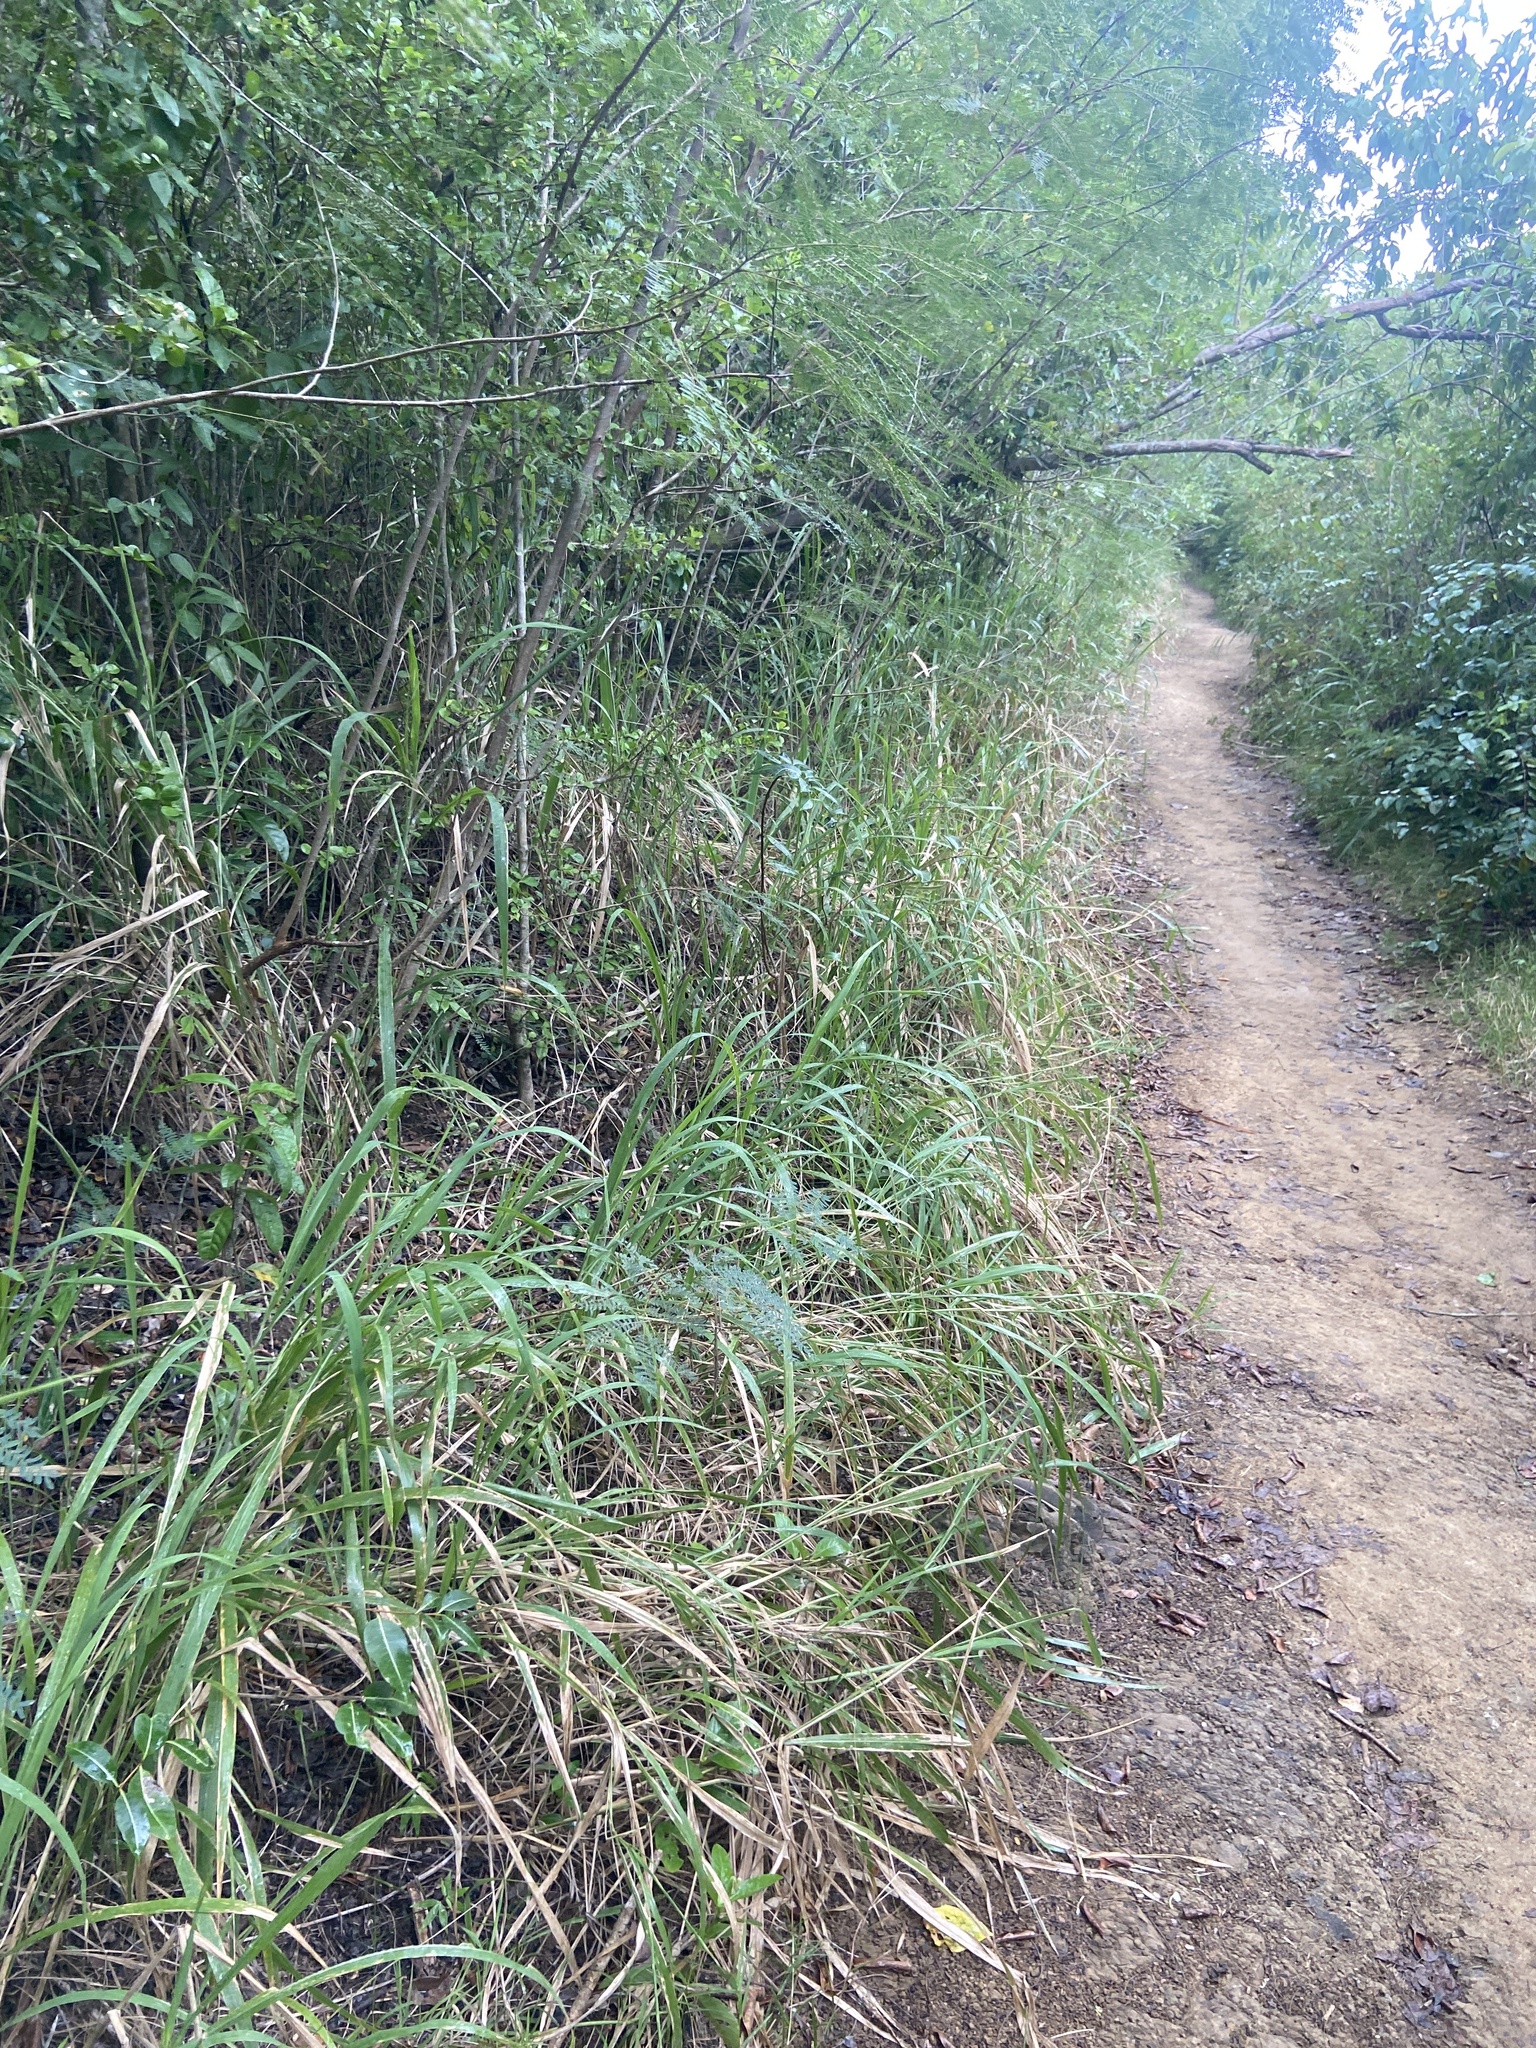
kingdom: Plantae
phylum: Tracheophyta
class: Liliopsida
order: Poales
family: Poaceae
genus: Megathyrsus
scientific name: Megathyrsus maximus
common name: Guineagrass
